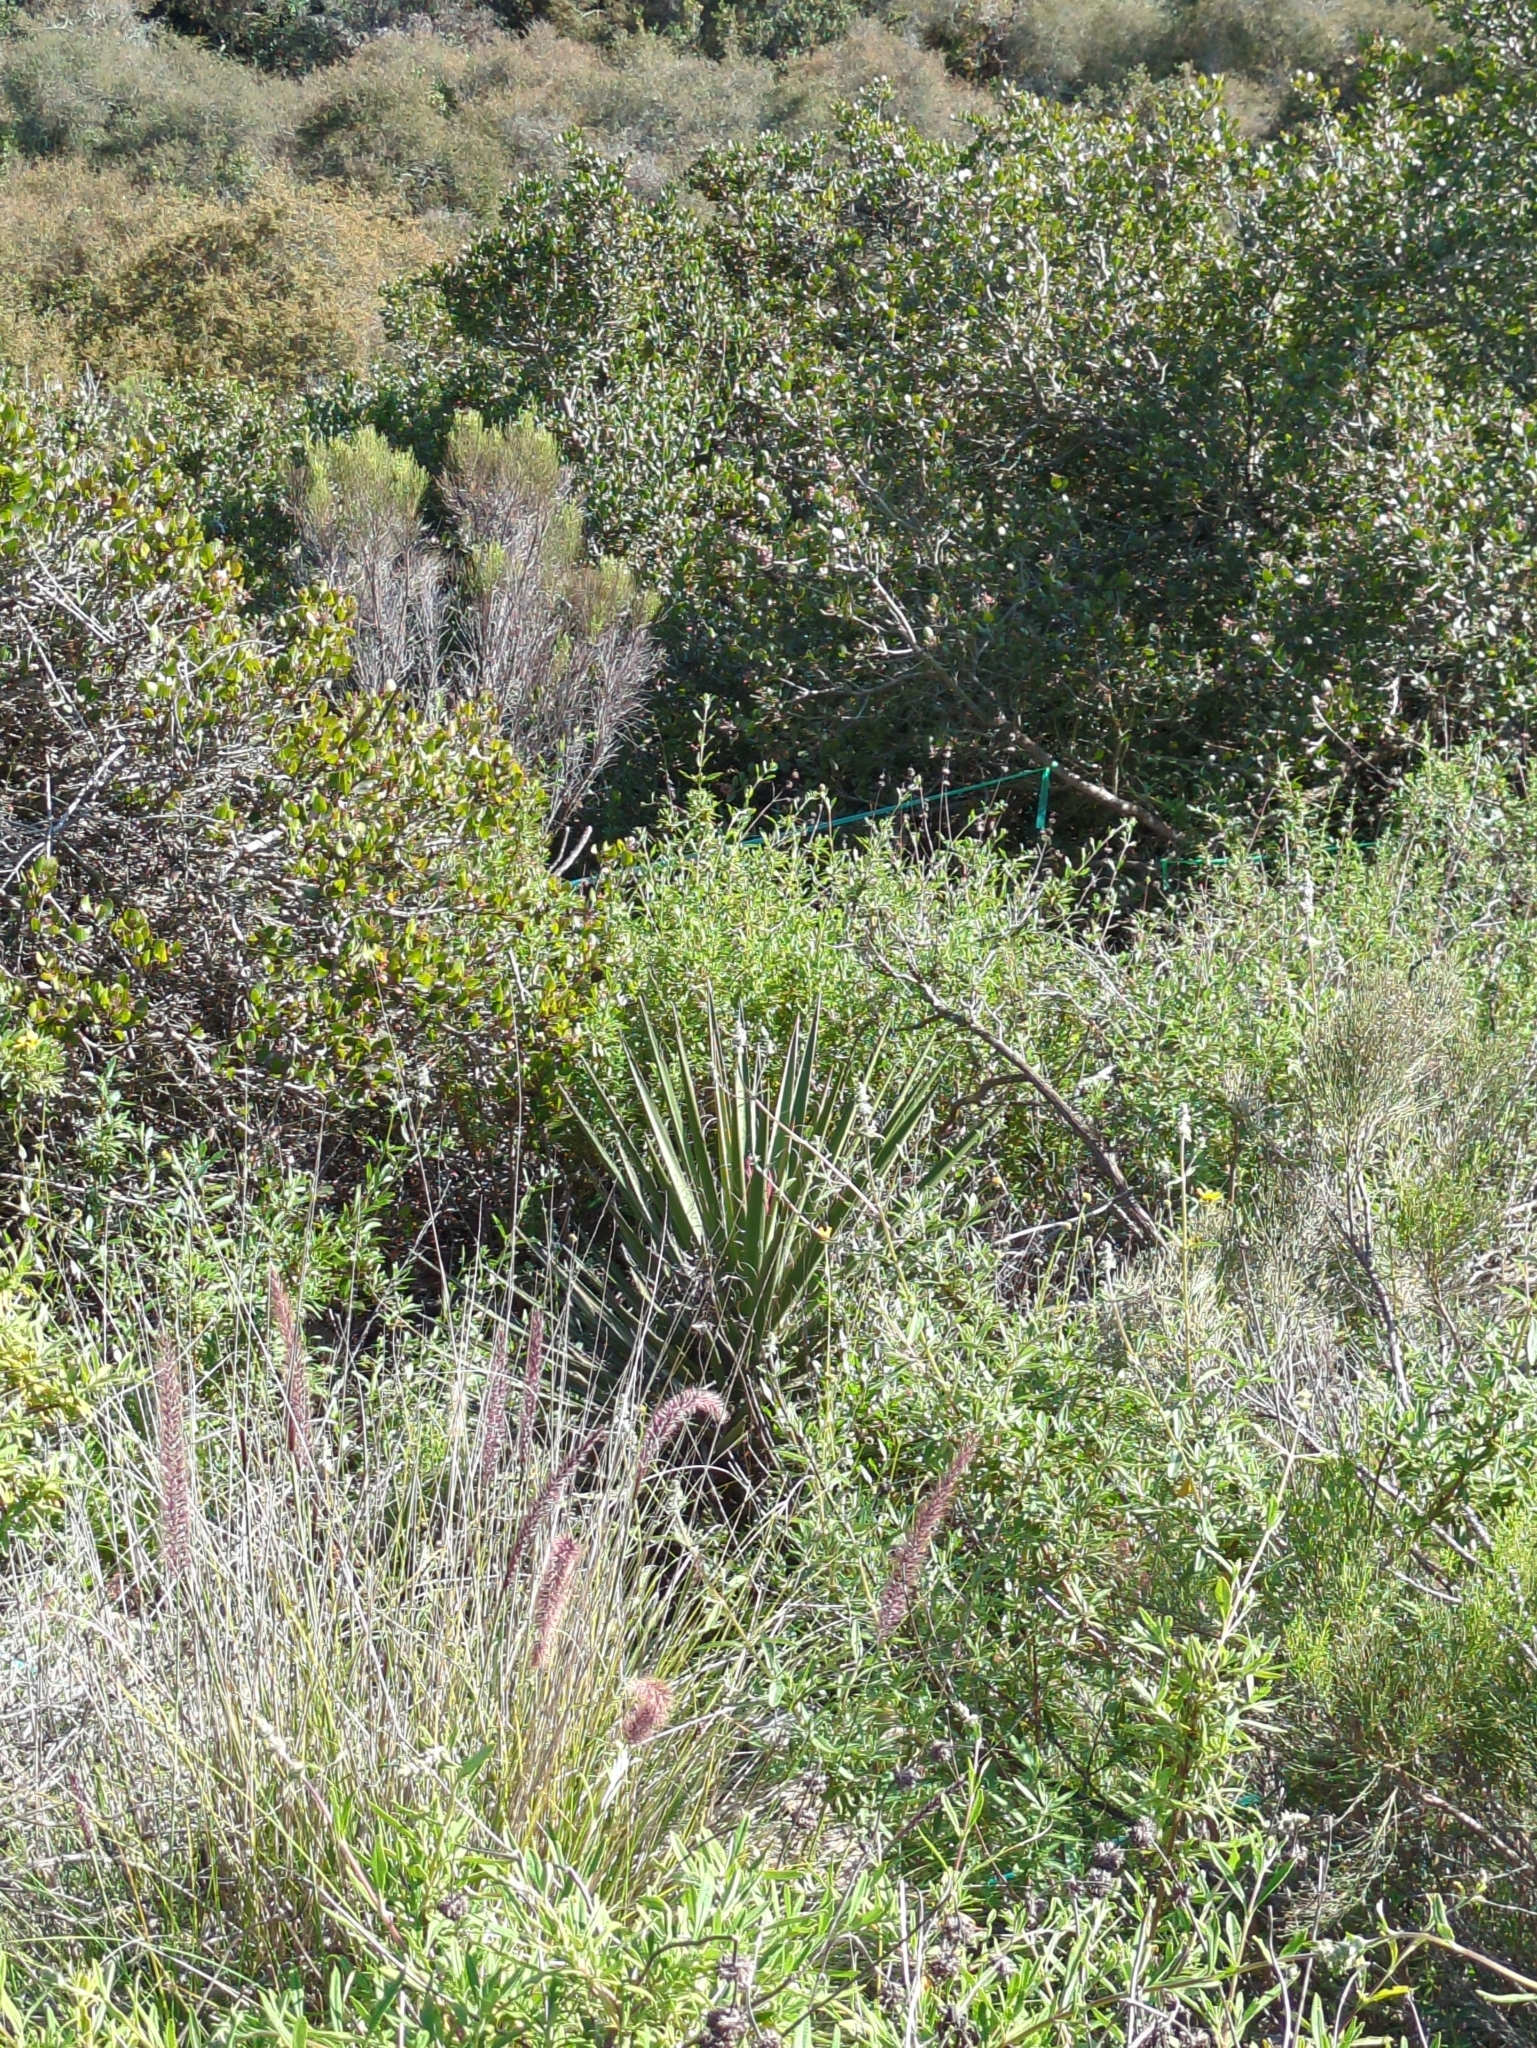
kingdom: Plantae
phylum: Tracheophyta
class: Liliopsida
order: Asparagales
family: Asparagaceae
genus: Yucca
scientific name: Yucca schidigera
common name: Mojave yucca
